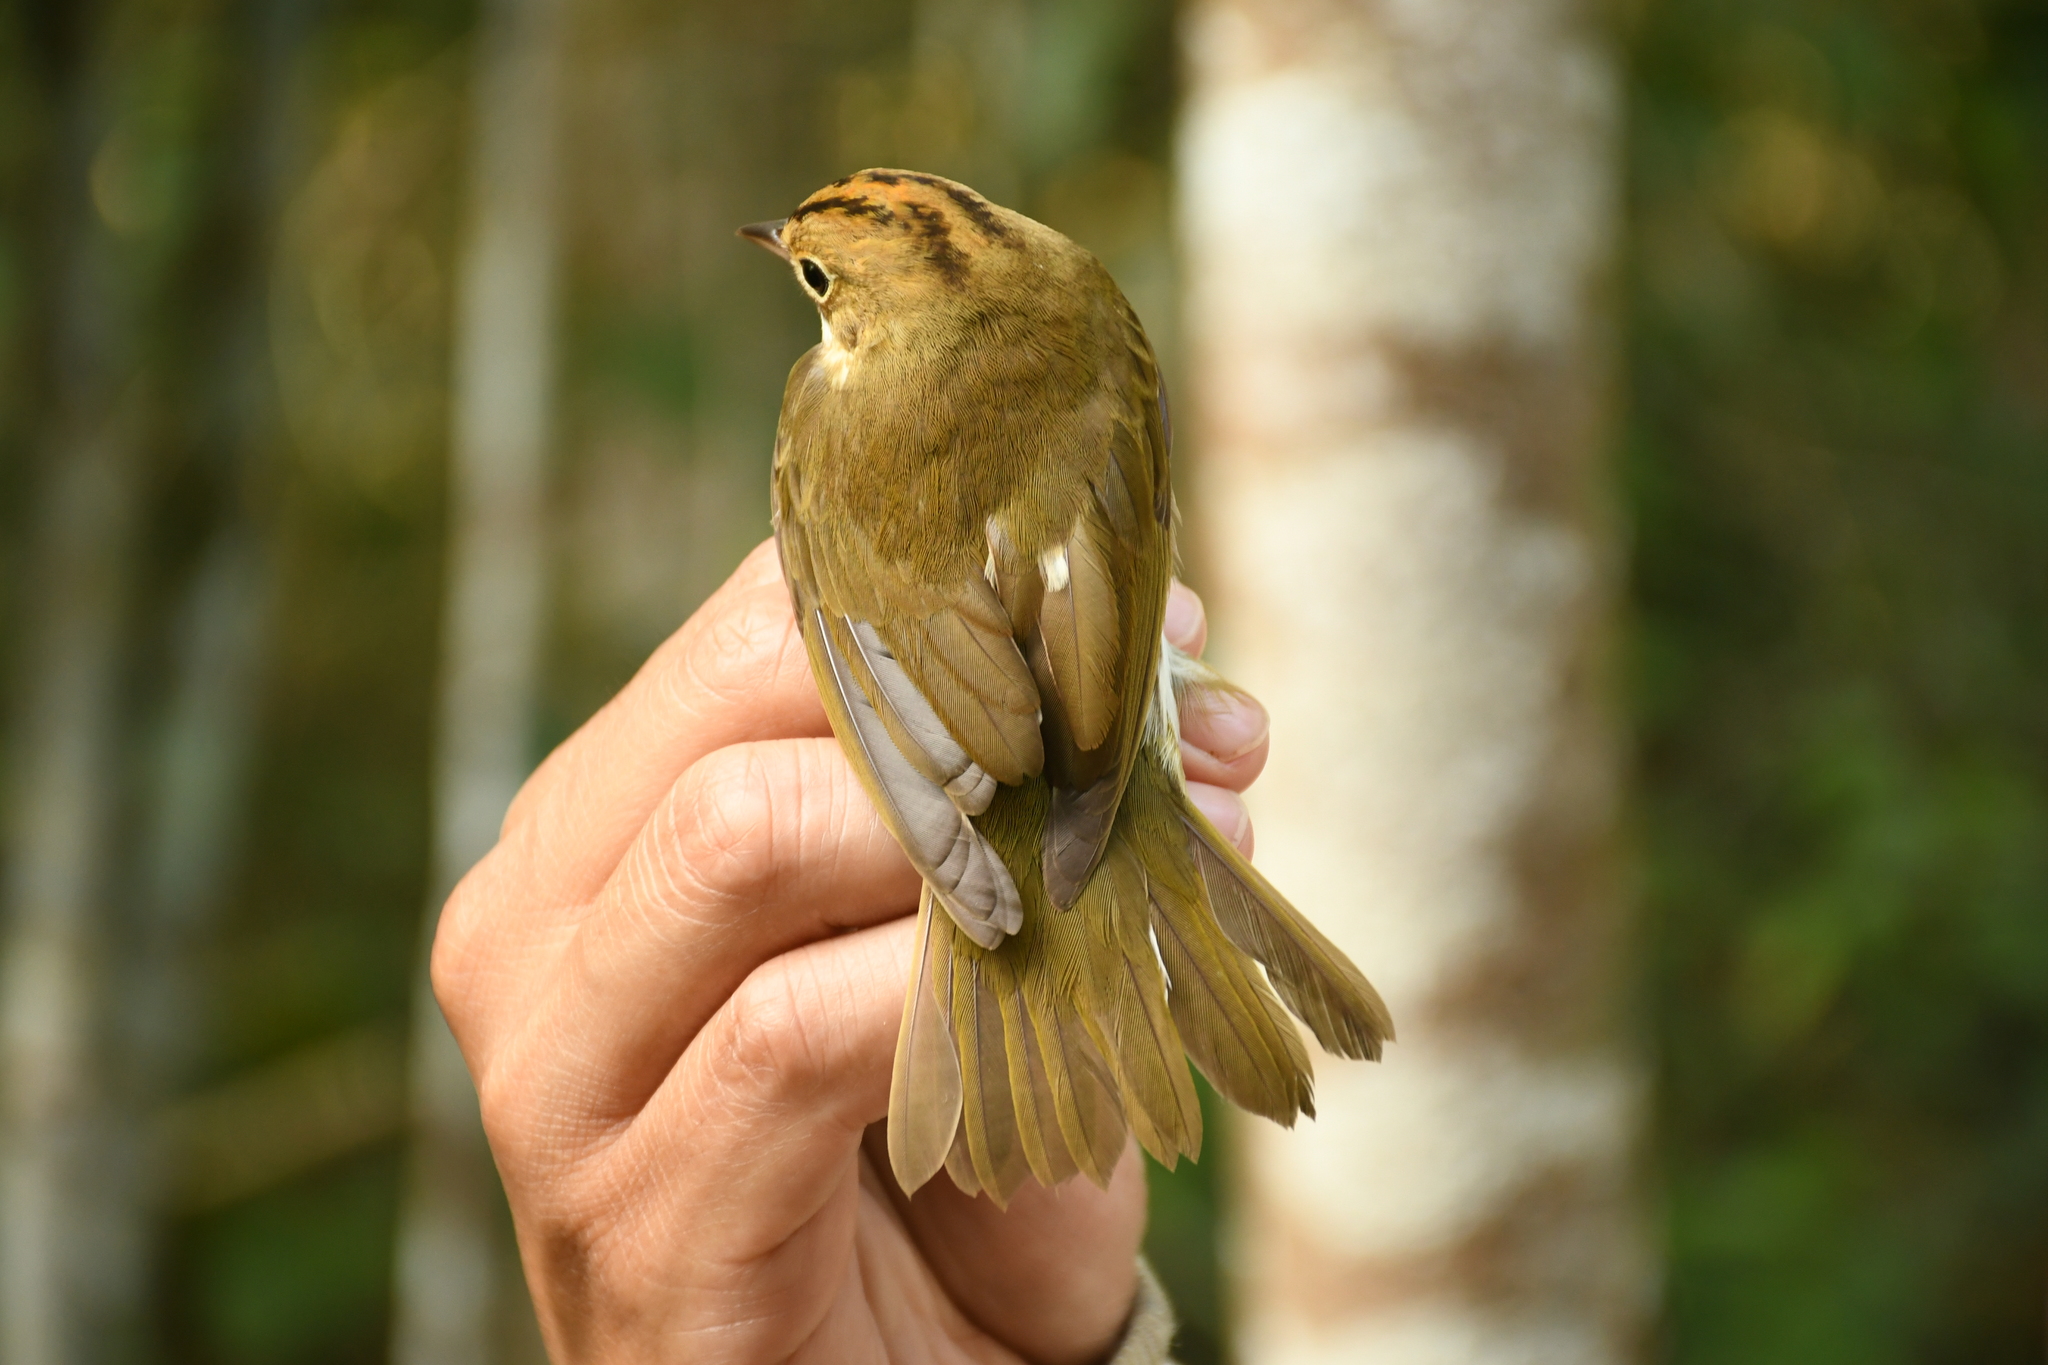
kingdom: Animalia
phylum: Chordata
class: Aves
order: Passeriformes
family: Parulidae
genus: Seiurus
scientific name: Seiurus aurocapilla
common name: Ovenbird
